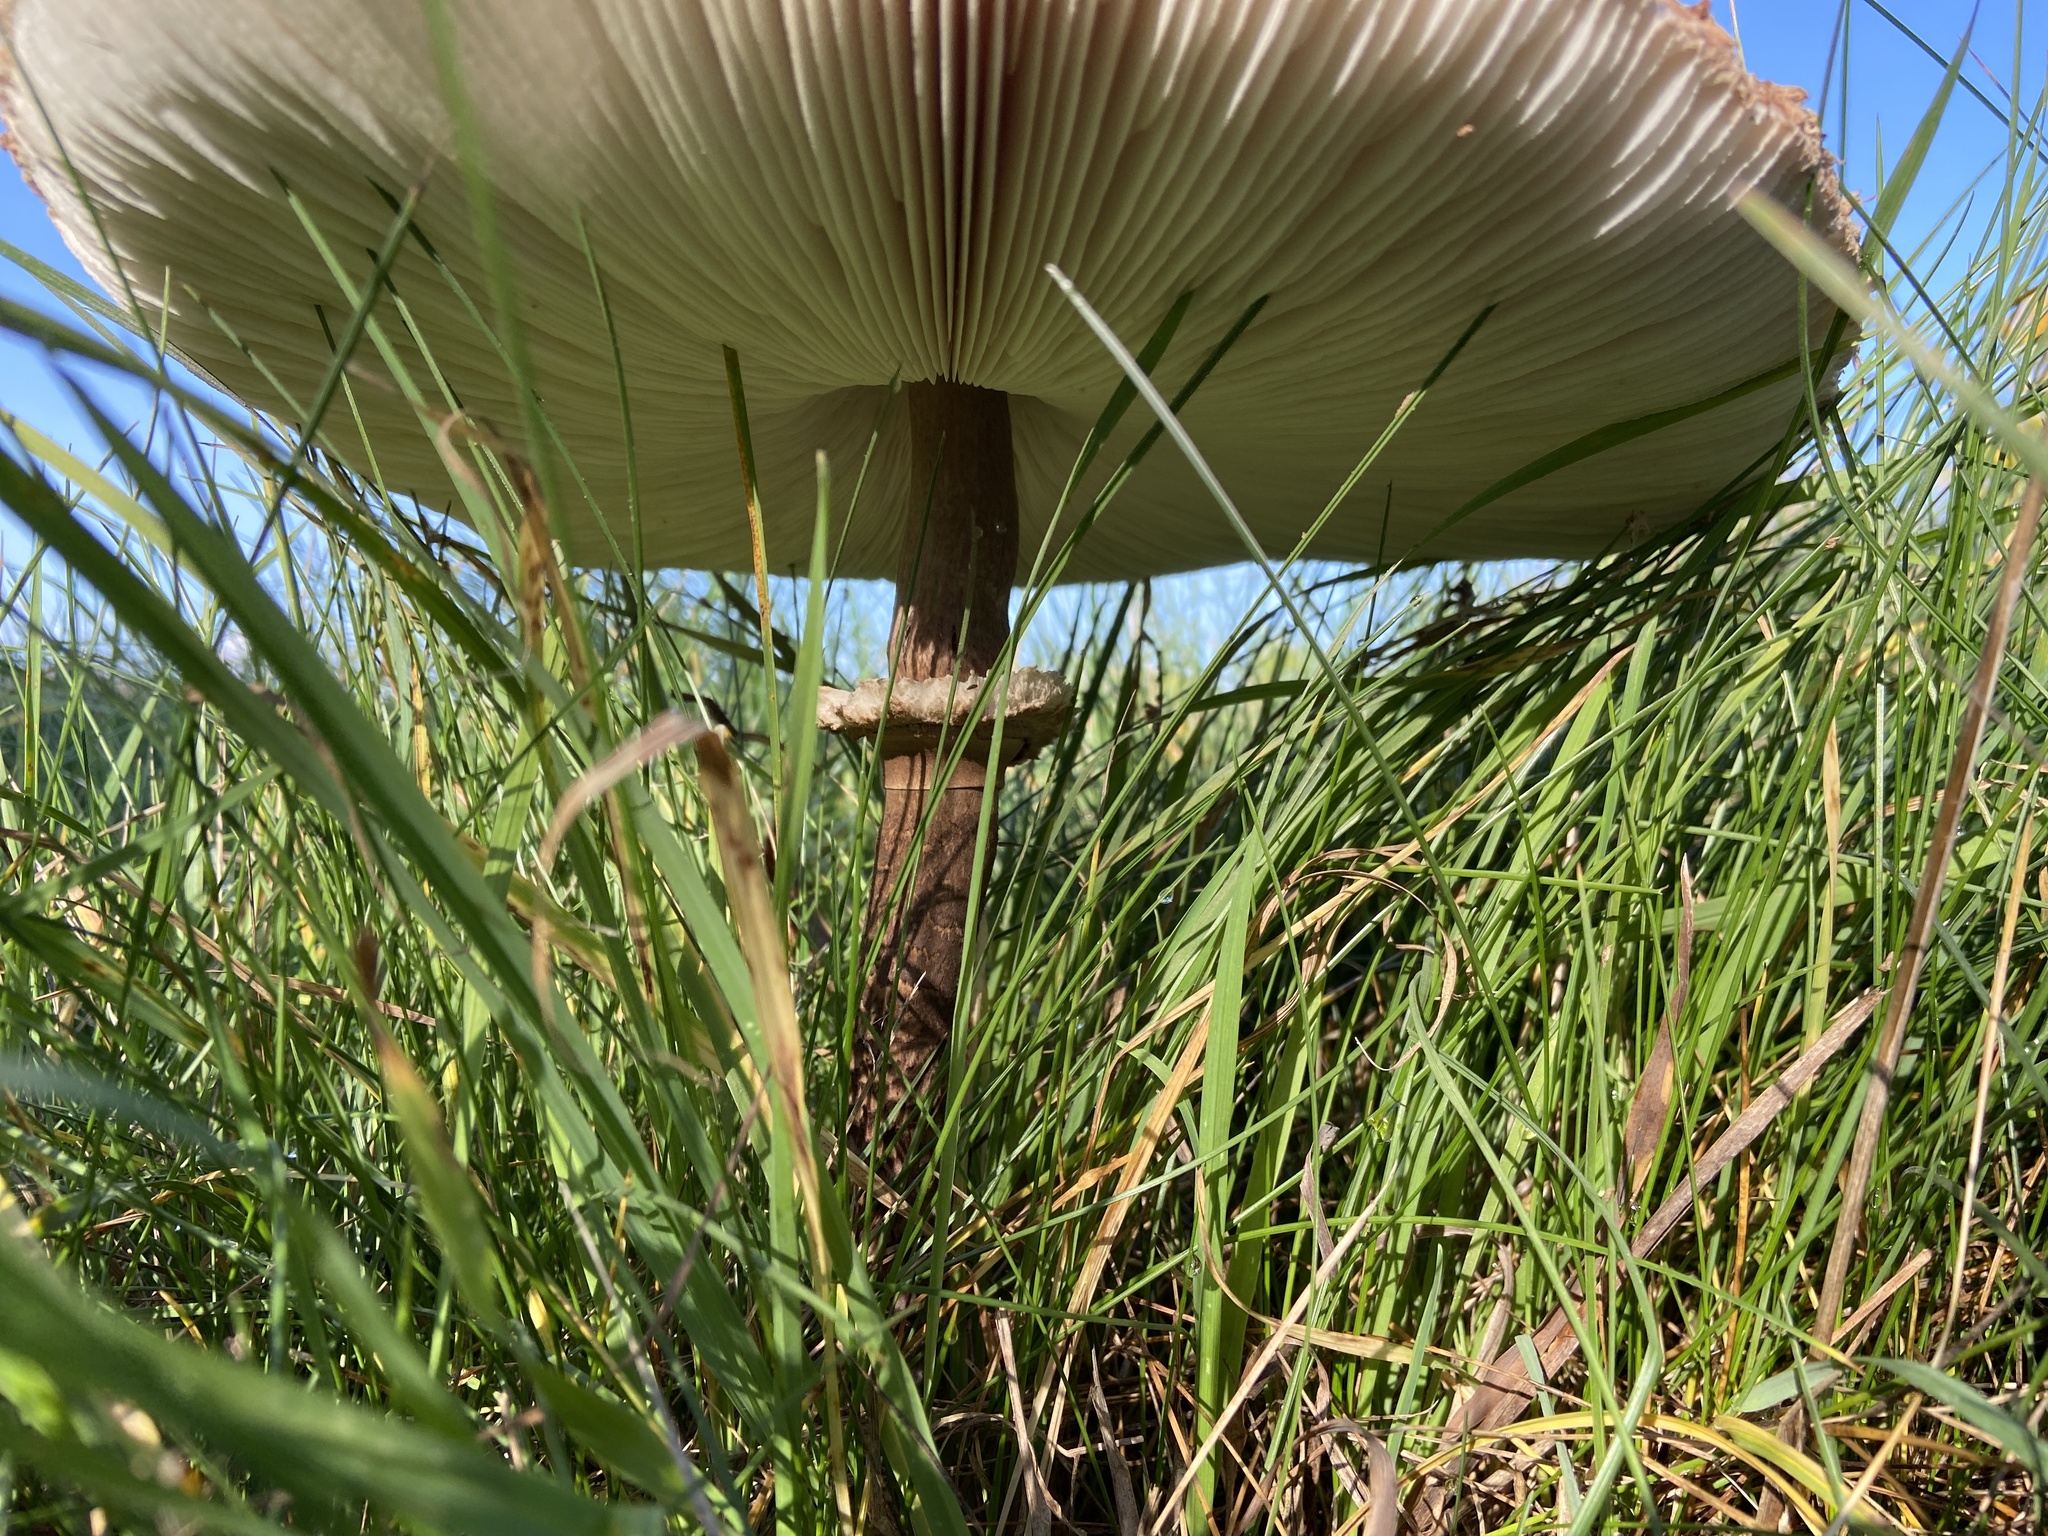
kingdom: Fungi
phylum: Basidiomycota
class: Agaricomycetes
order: Agaricales
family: Agaricaceae
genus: Macrolepiota
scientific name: Macrolepiota procera
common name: Parasol
